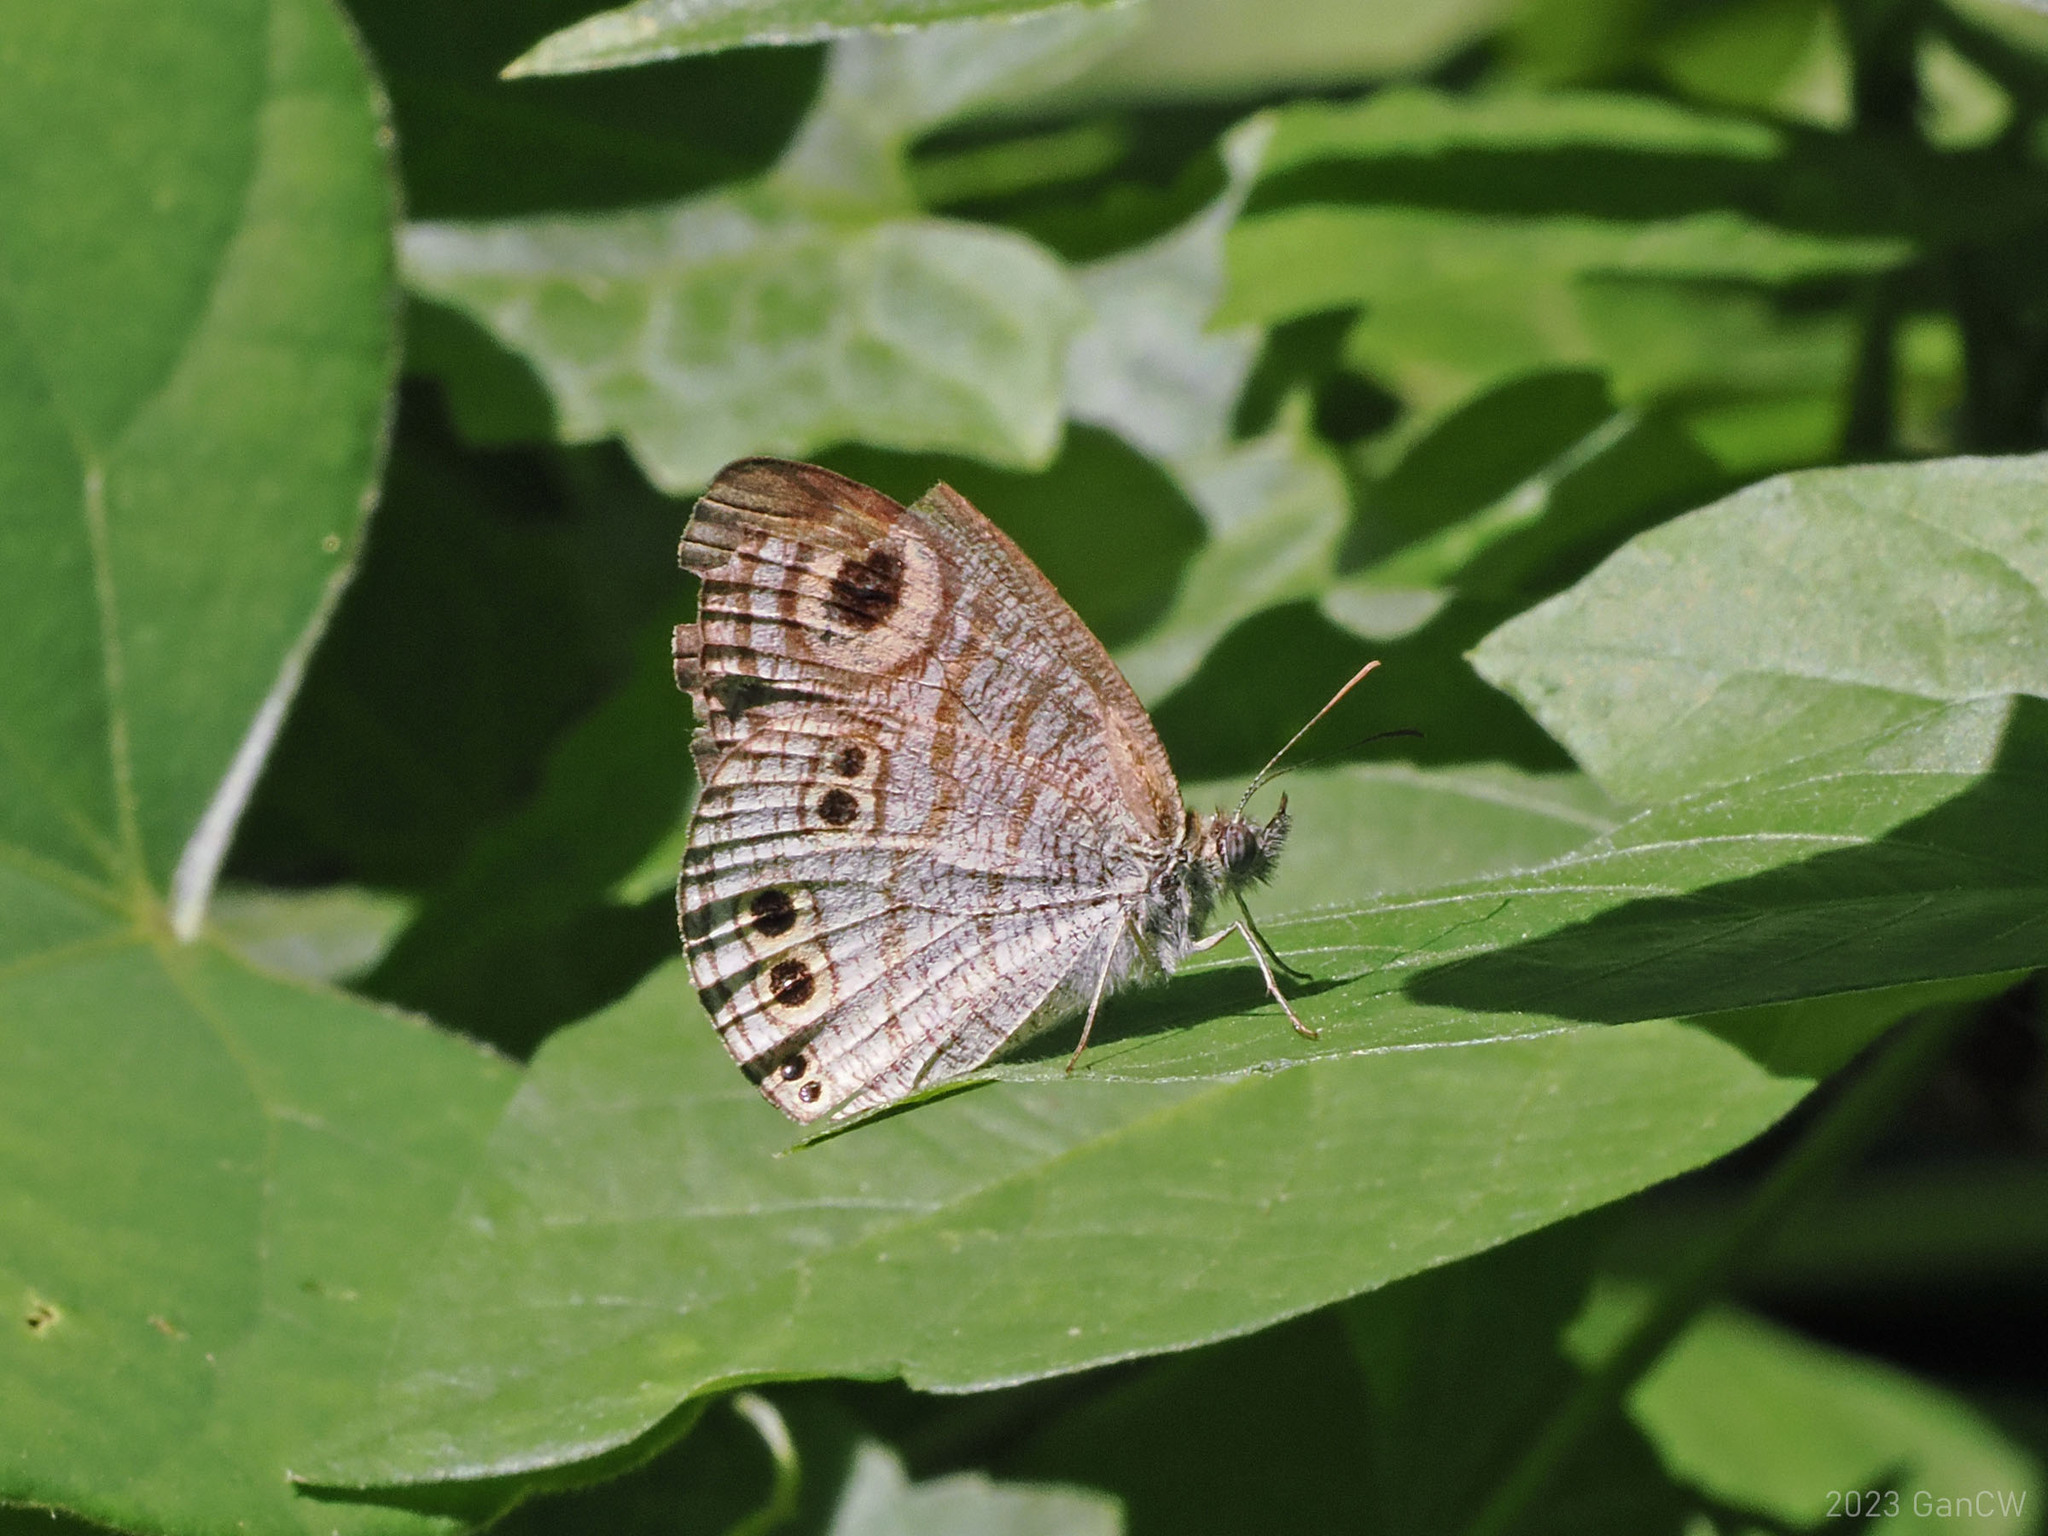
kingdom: Animalia
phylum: Arthropoda
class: Insecta
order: Lepidoptera
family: Nymphalidae
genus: Ypthima
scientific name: Ypthima stellera
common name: Philippine five-ring
